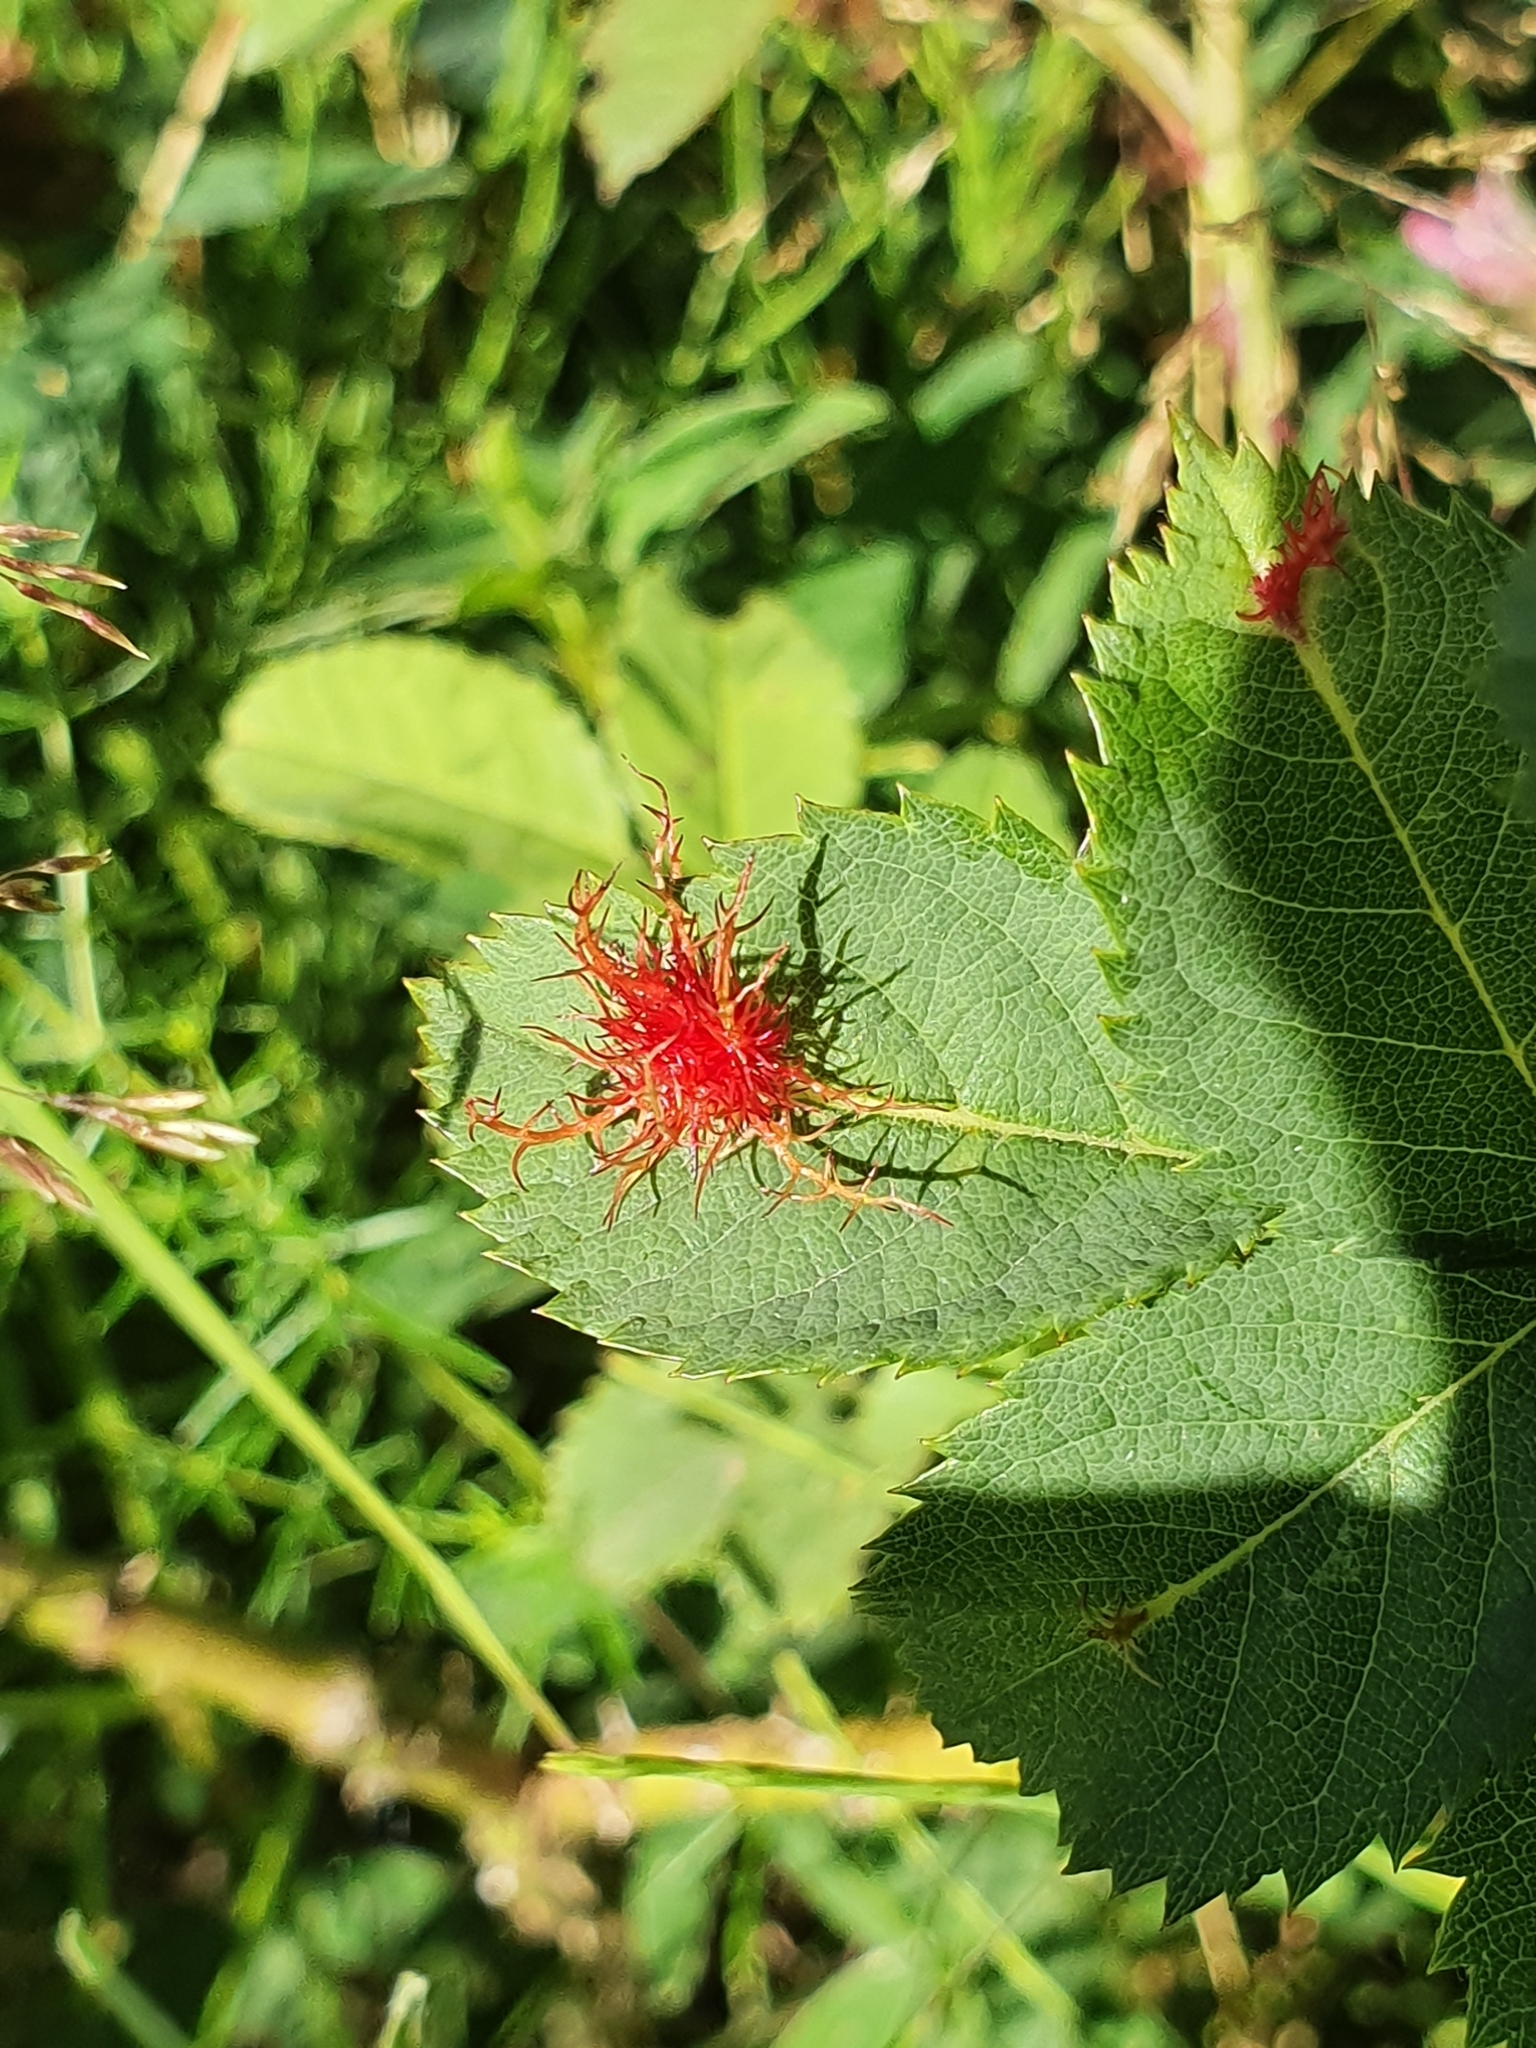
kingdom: Animalia
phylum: Arthropoda
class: Insecta
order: Hymenoptera
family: Cynipidae
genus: Diplolepis
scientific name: Diplolepis rosae
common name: Bedeguar gall
